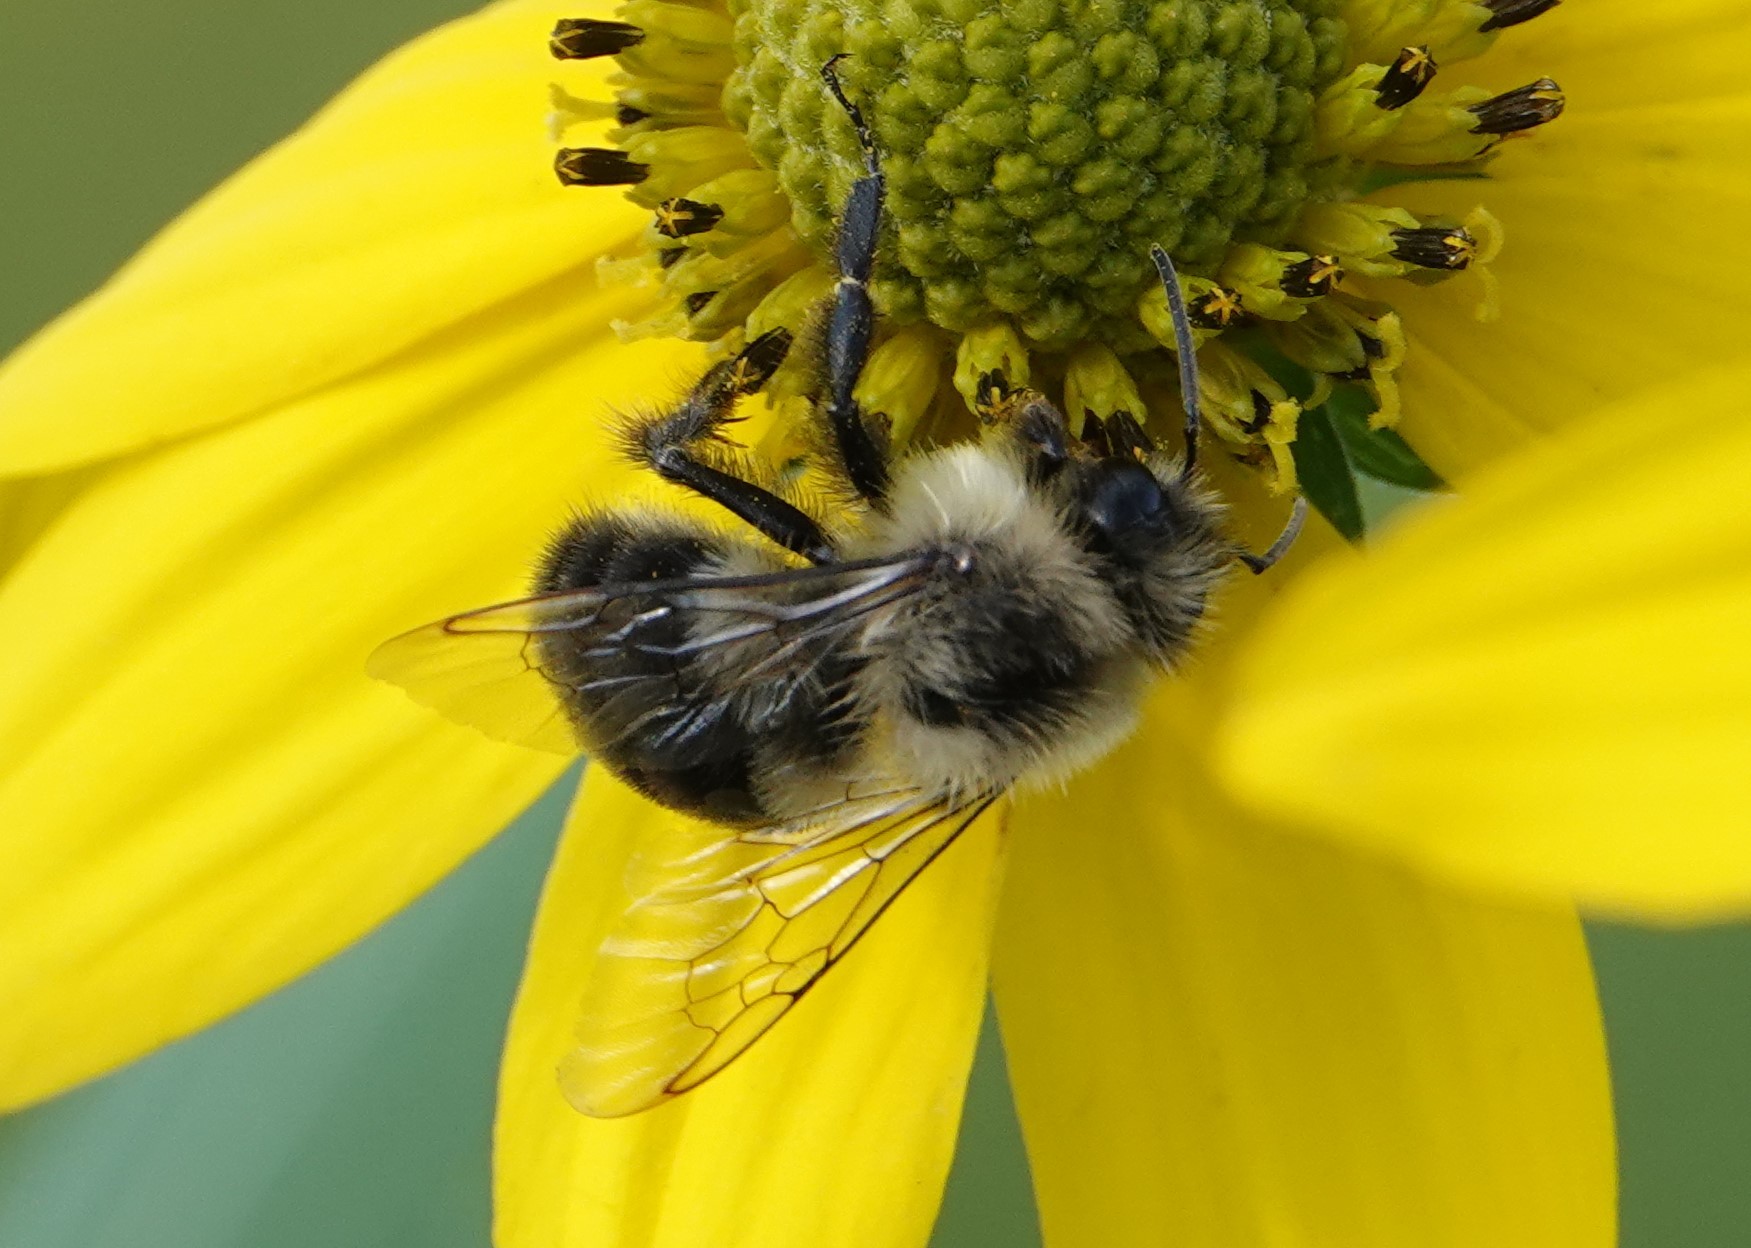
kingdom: Animalia
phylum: Arthropoda
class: Insecta
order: Hymenoptera
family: Apidae
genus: Bombus
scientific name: Bombus impatiens
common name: Common eastern bumble bee
